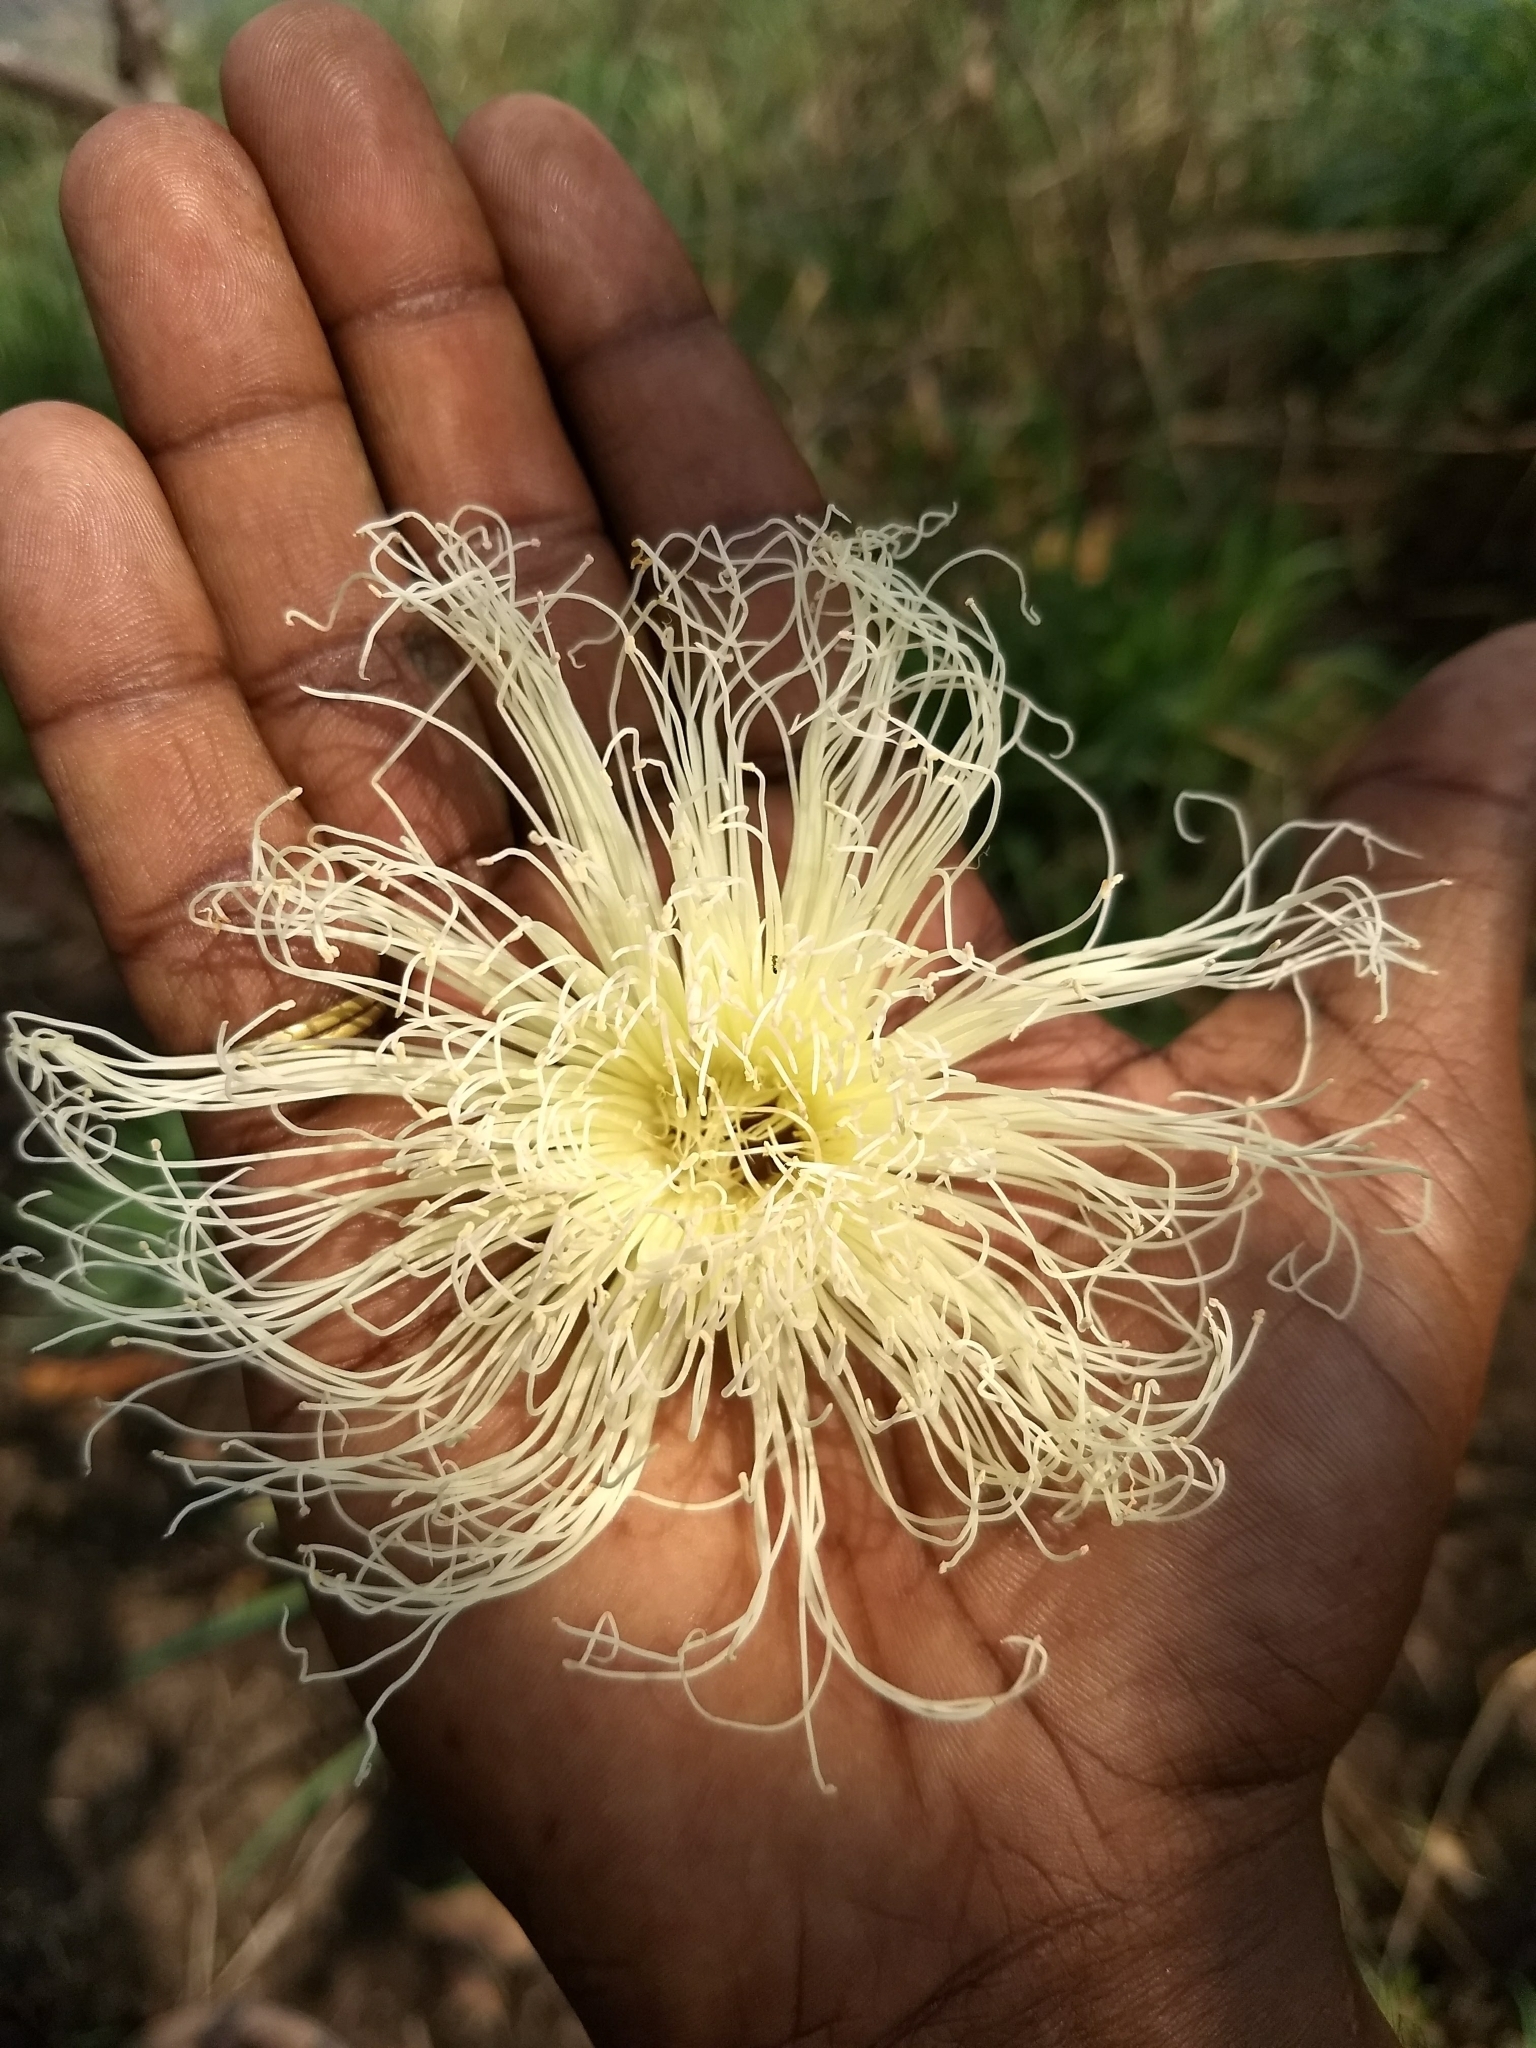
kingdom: Plantae
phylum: Tracheophyta
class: Magnoliopsida
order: Ericales
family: Lecythidaceae
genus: Careya
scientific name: Careya arborea
